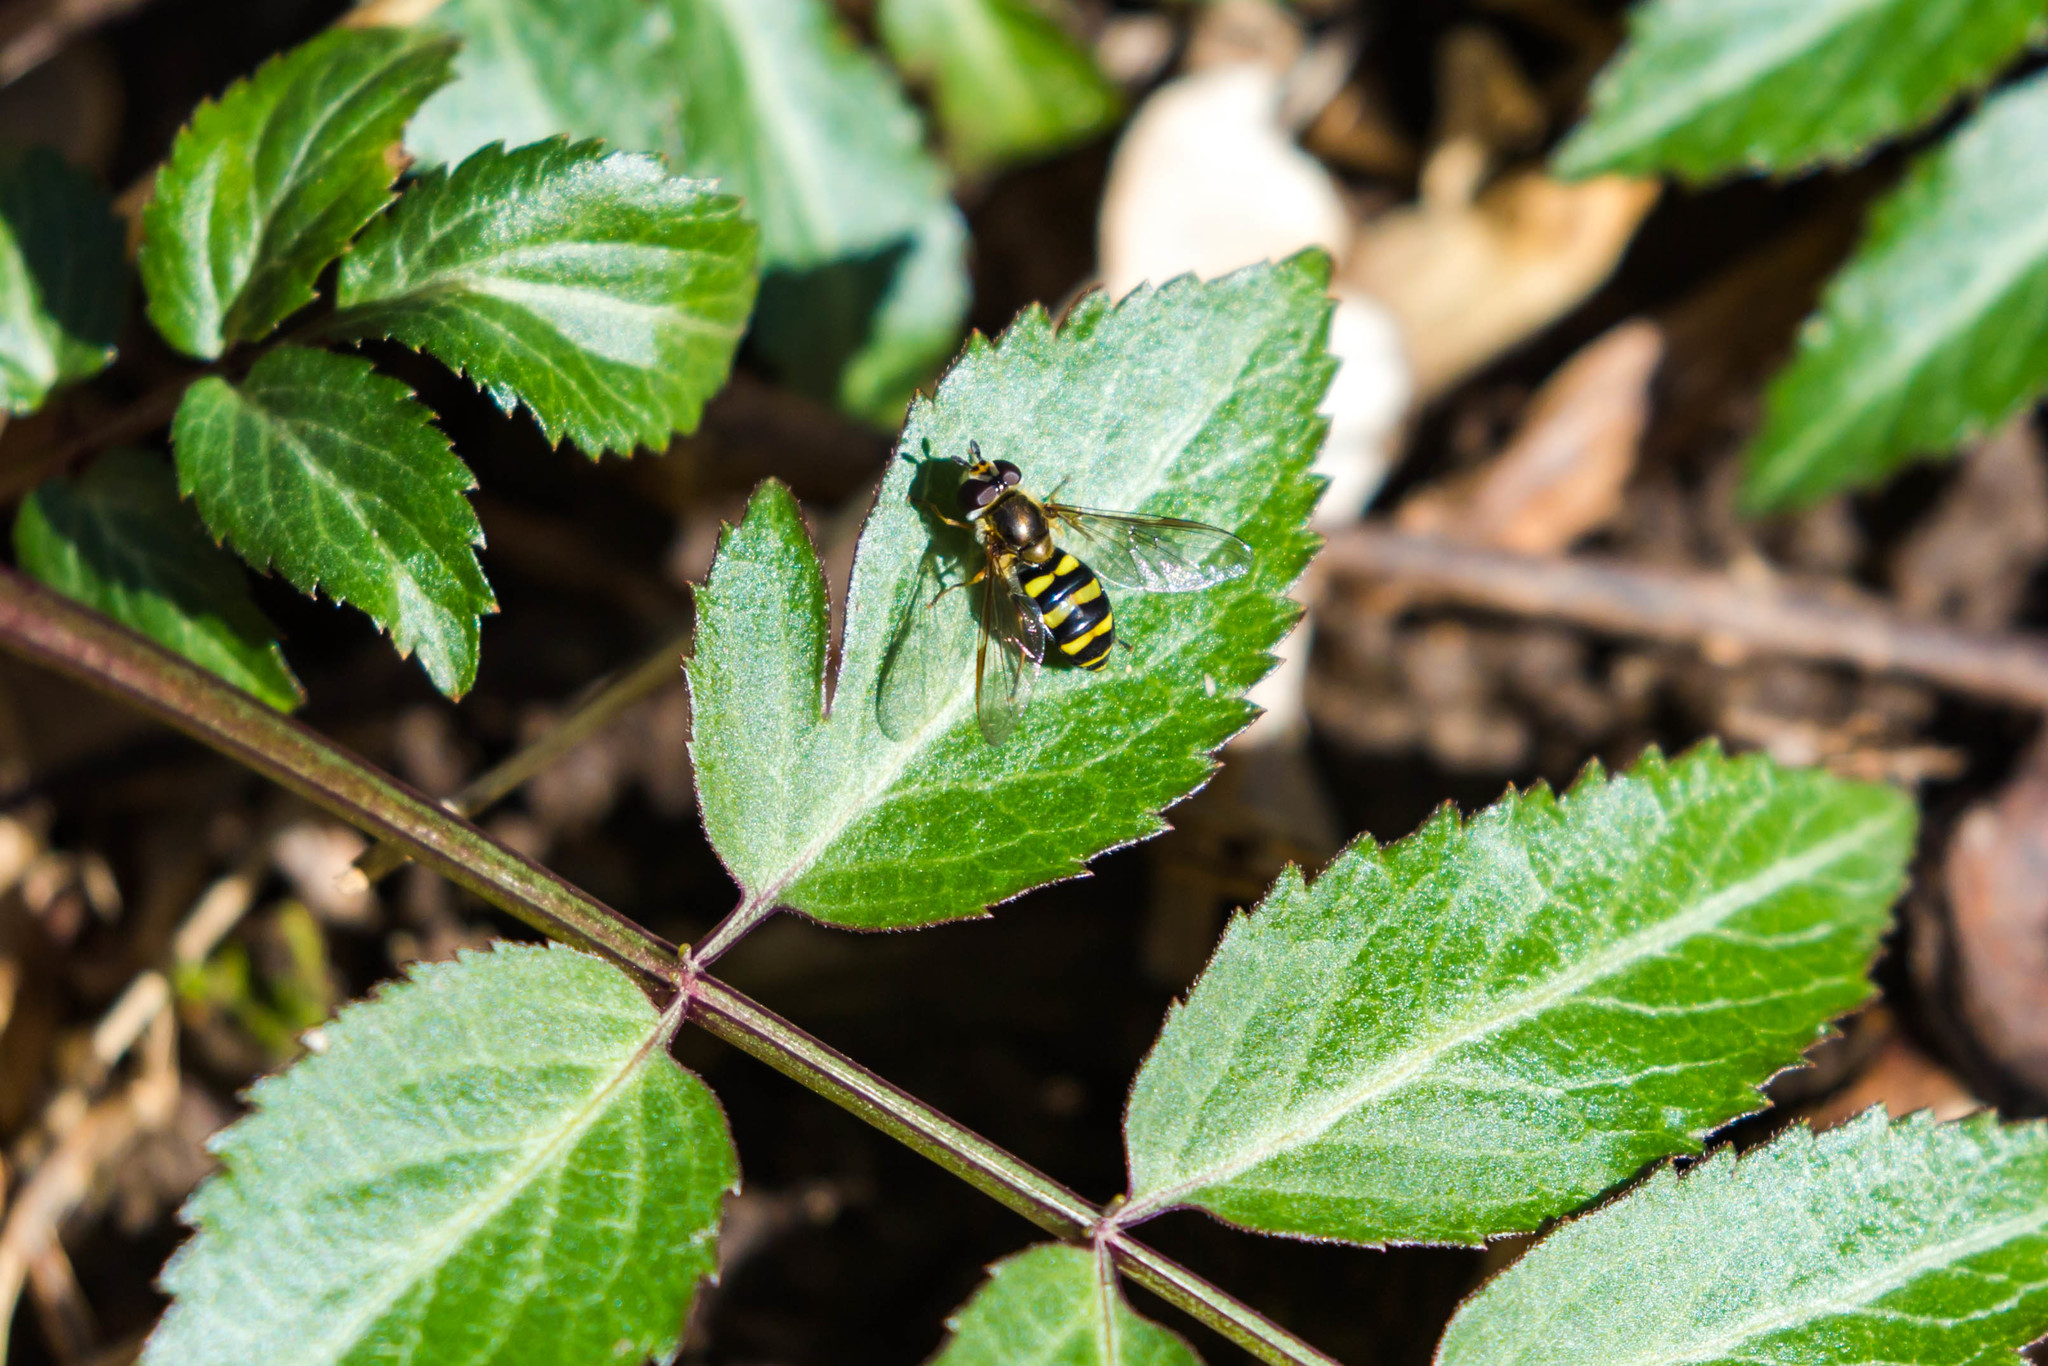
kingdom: Animalia
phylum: Arthropoda
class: Insecta
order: Diptera
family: Syrphidae
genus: Eupeodes
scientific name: Eupeodes
